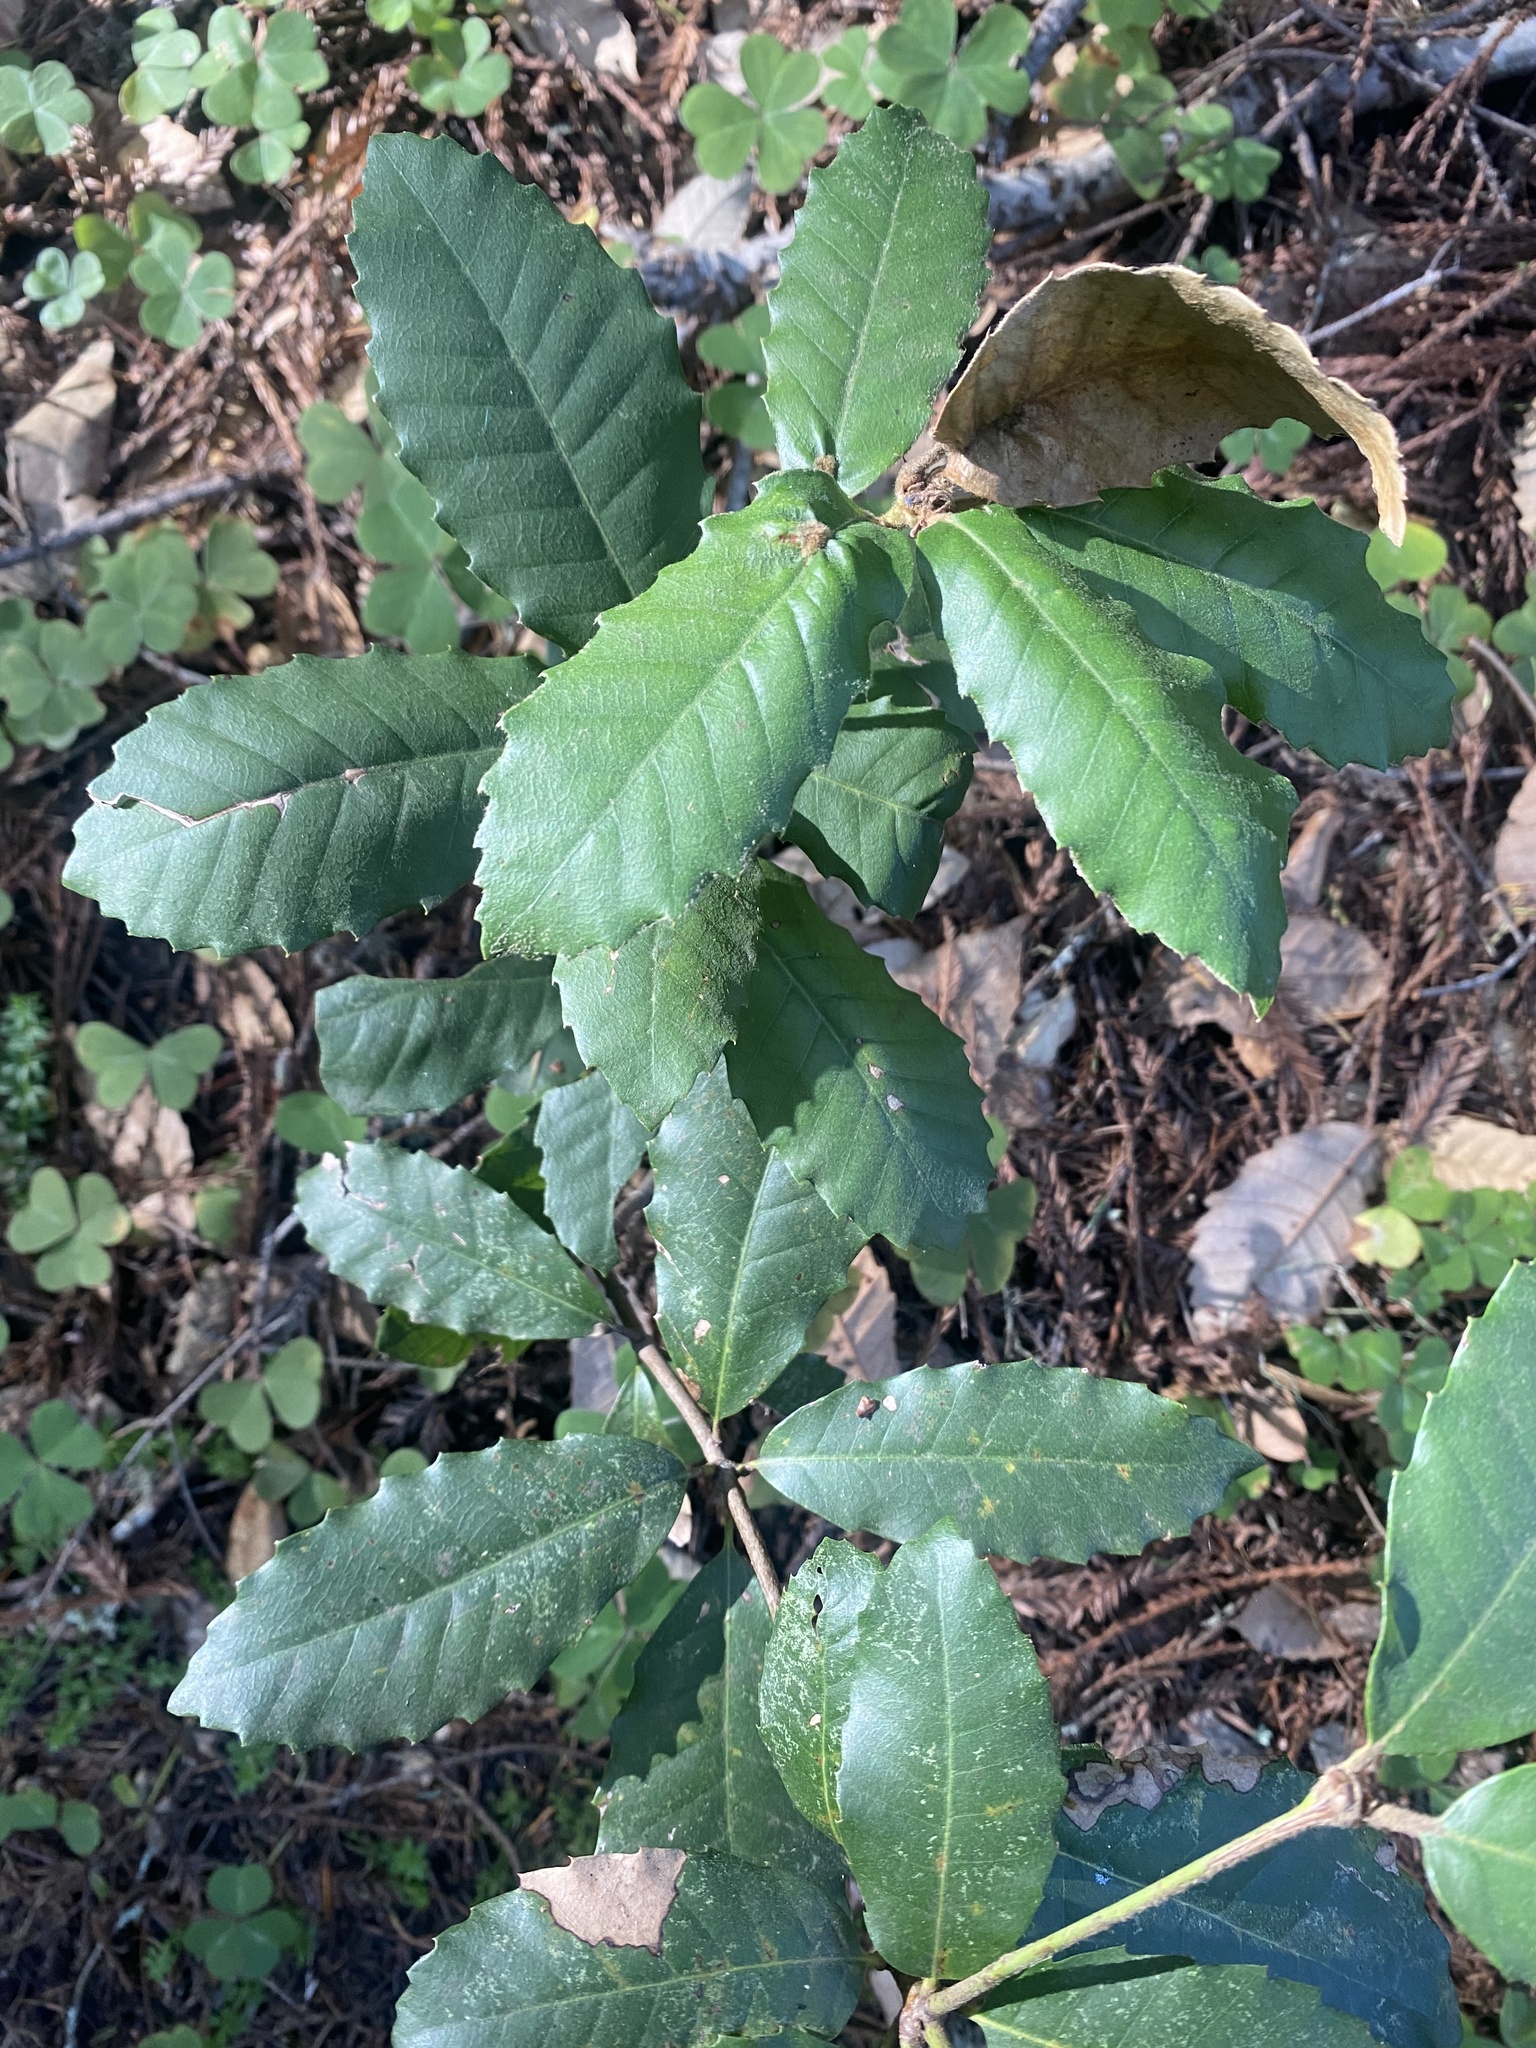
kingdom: Plantae
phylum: Tracheophyta
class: Magnoliopsida
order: Fagales
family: Fagaceae
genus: Notholithocarpus
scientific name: Notholithocarpus densiflorus
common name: Tan bark oak
